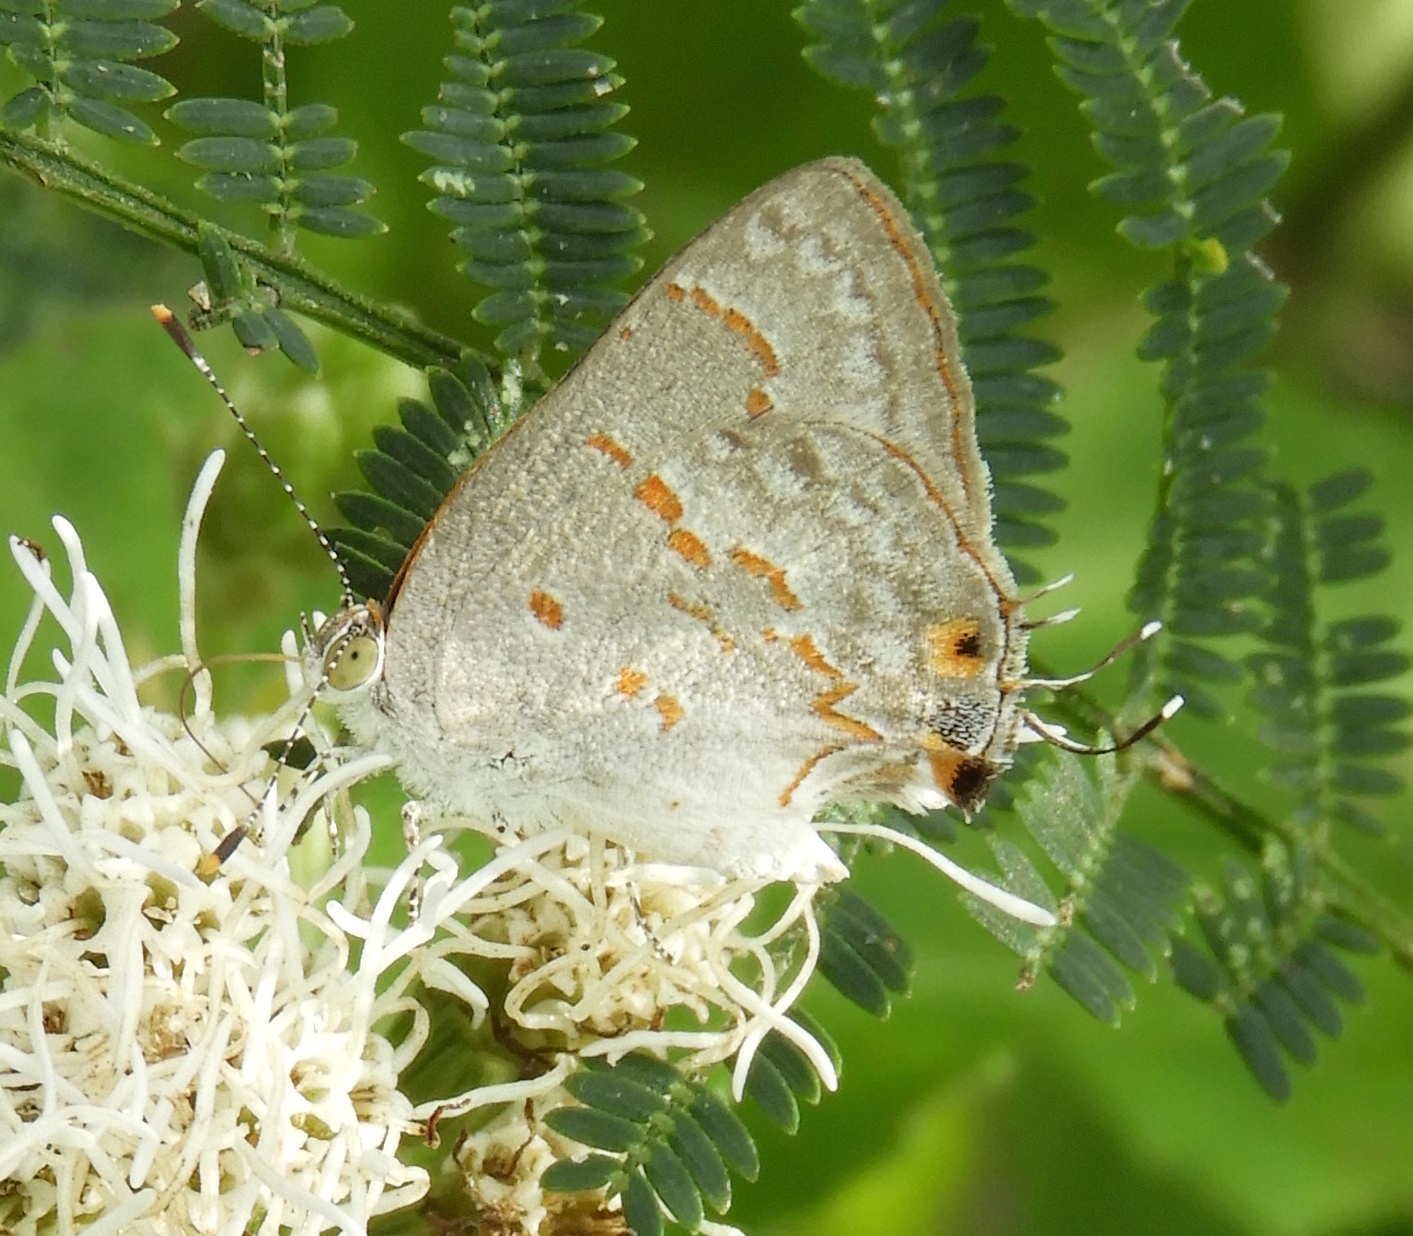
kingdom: Animalia
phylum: Arthropoda
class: Insecta
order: Lepidoptera
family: Lycaenidae
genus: Ministrymon
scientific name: Ministrymon
